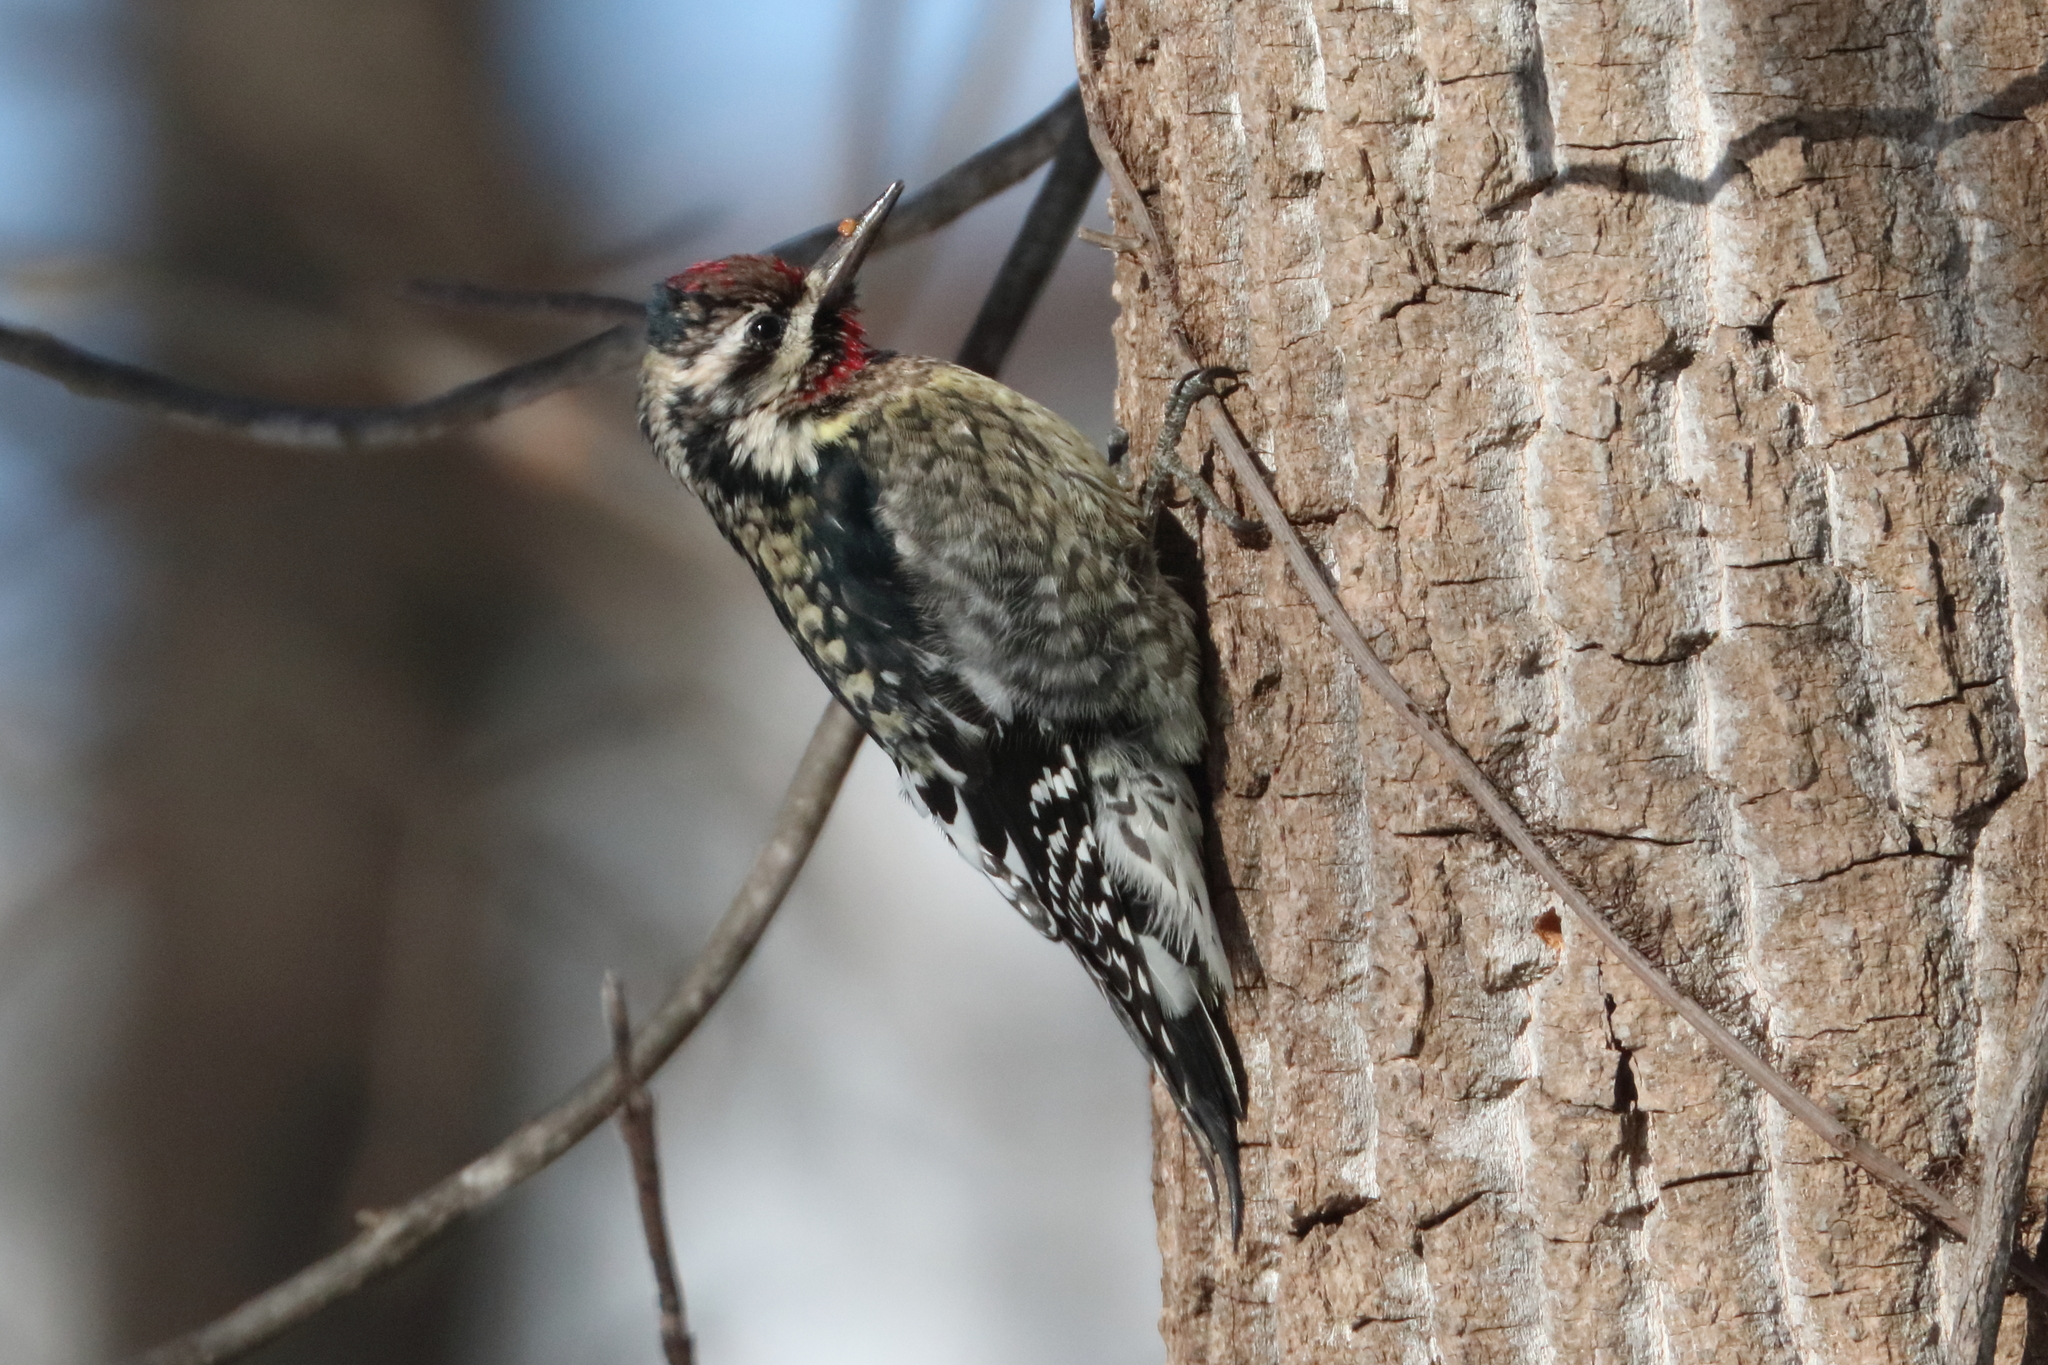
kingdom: Animalia
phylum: Chordata
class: Aves
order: Piciformes
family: Picidae
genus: Sphyrapicus
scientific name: Sphyrapicus varius
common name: Yellow-bellied sapsucker
